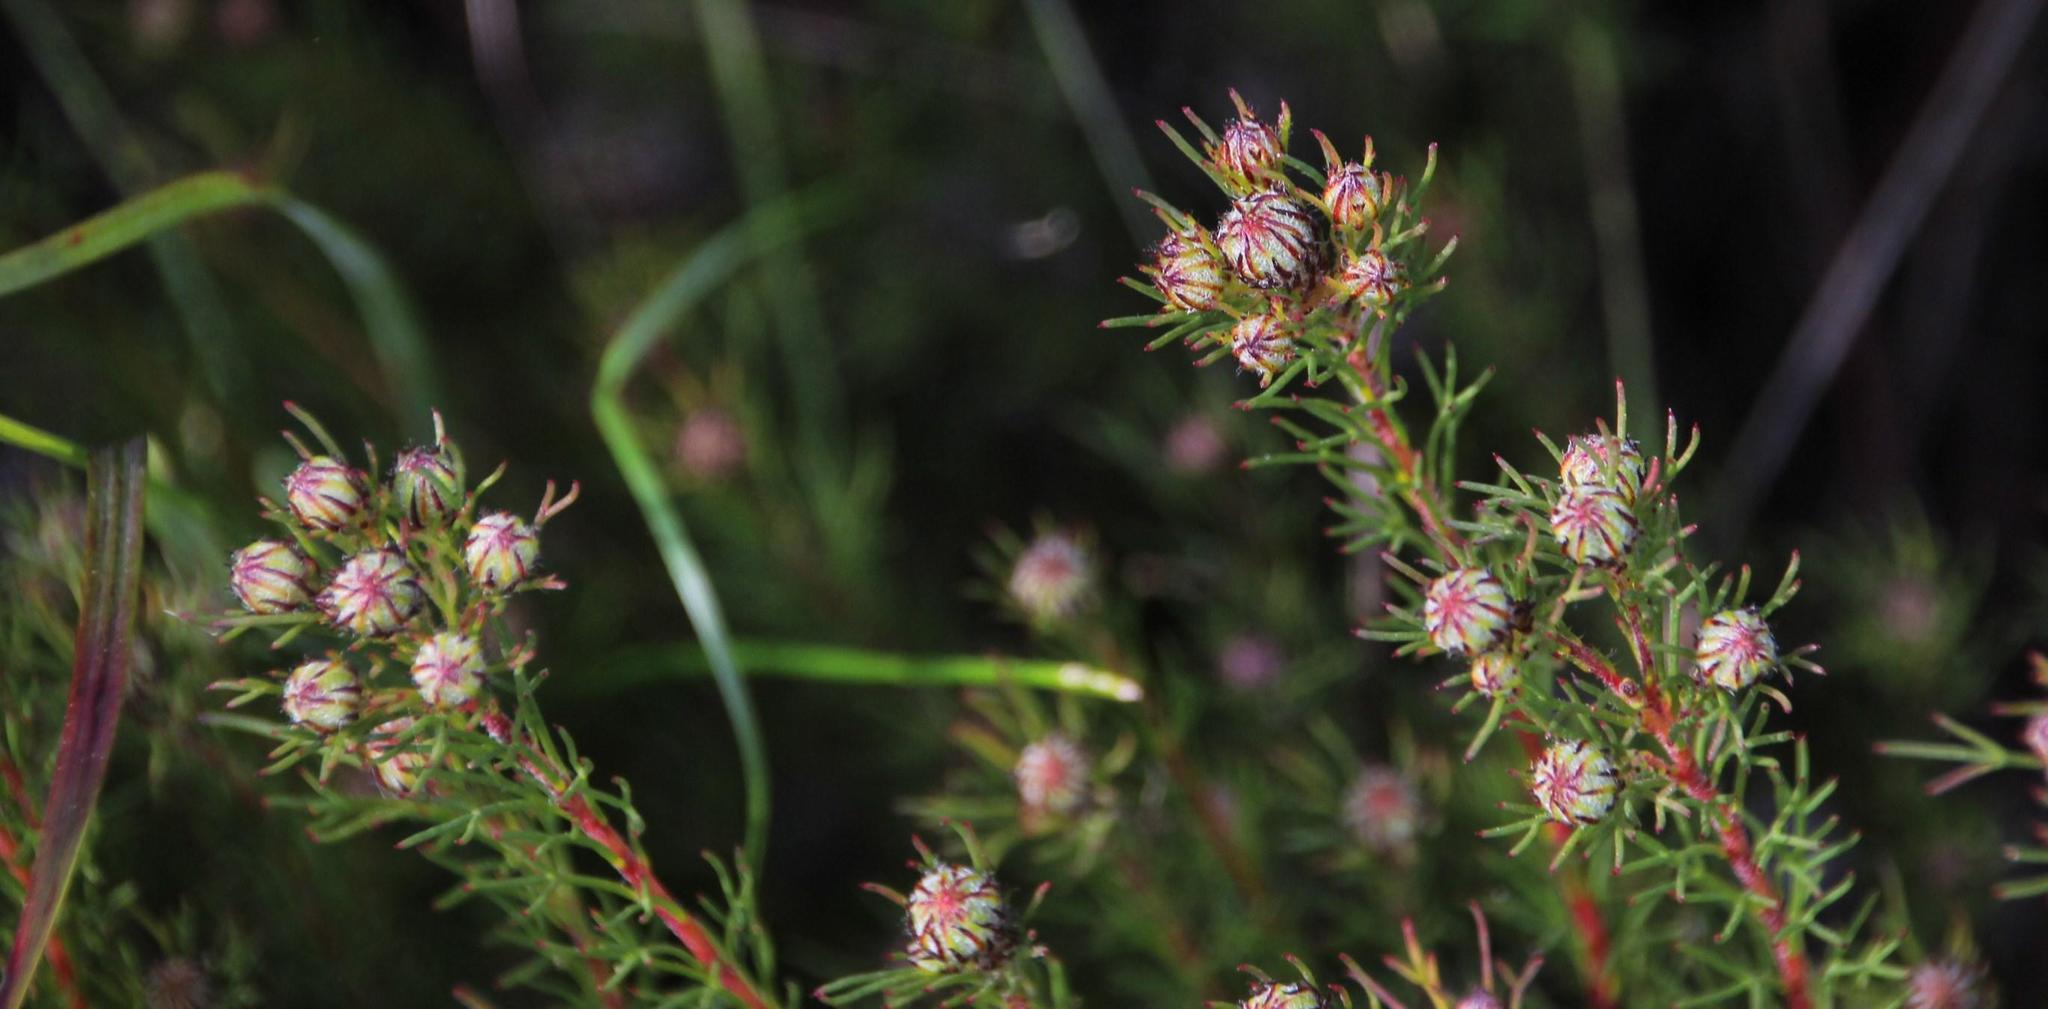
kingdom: Plantae
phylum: Tracheophyta
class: Magnoliopsida
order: Proteales
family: Proteaceae
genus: Serruria
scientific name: Serruria aemula
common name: Strawberry spiderhead
